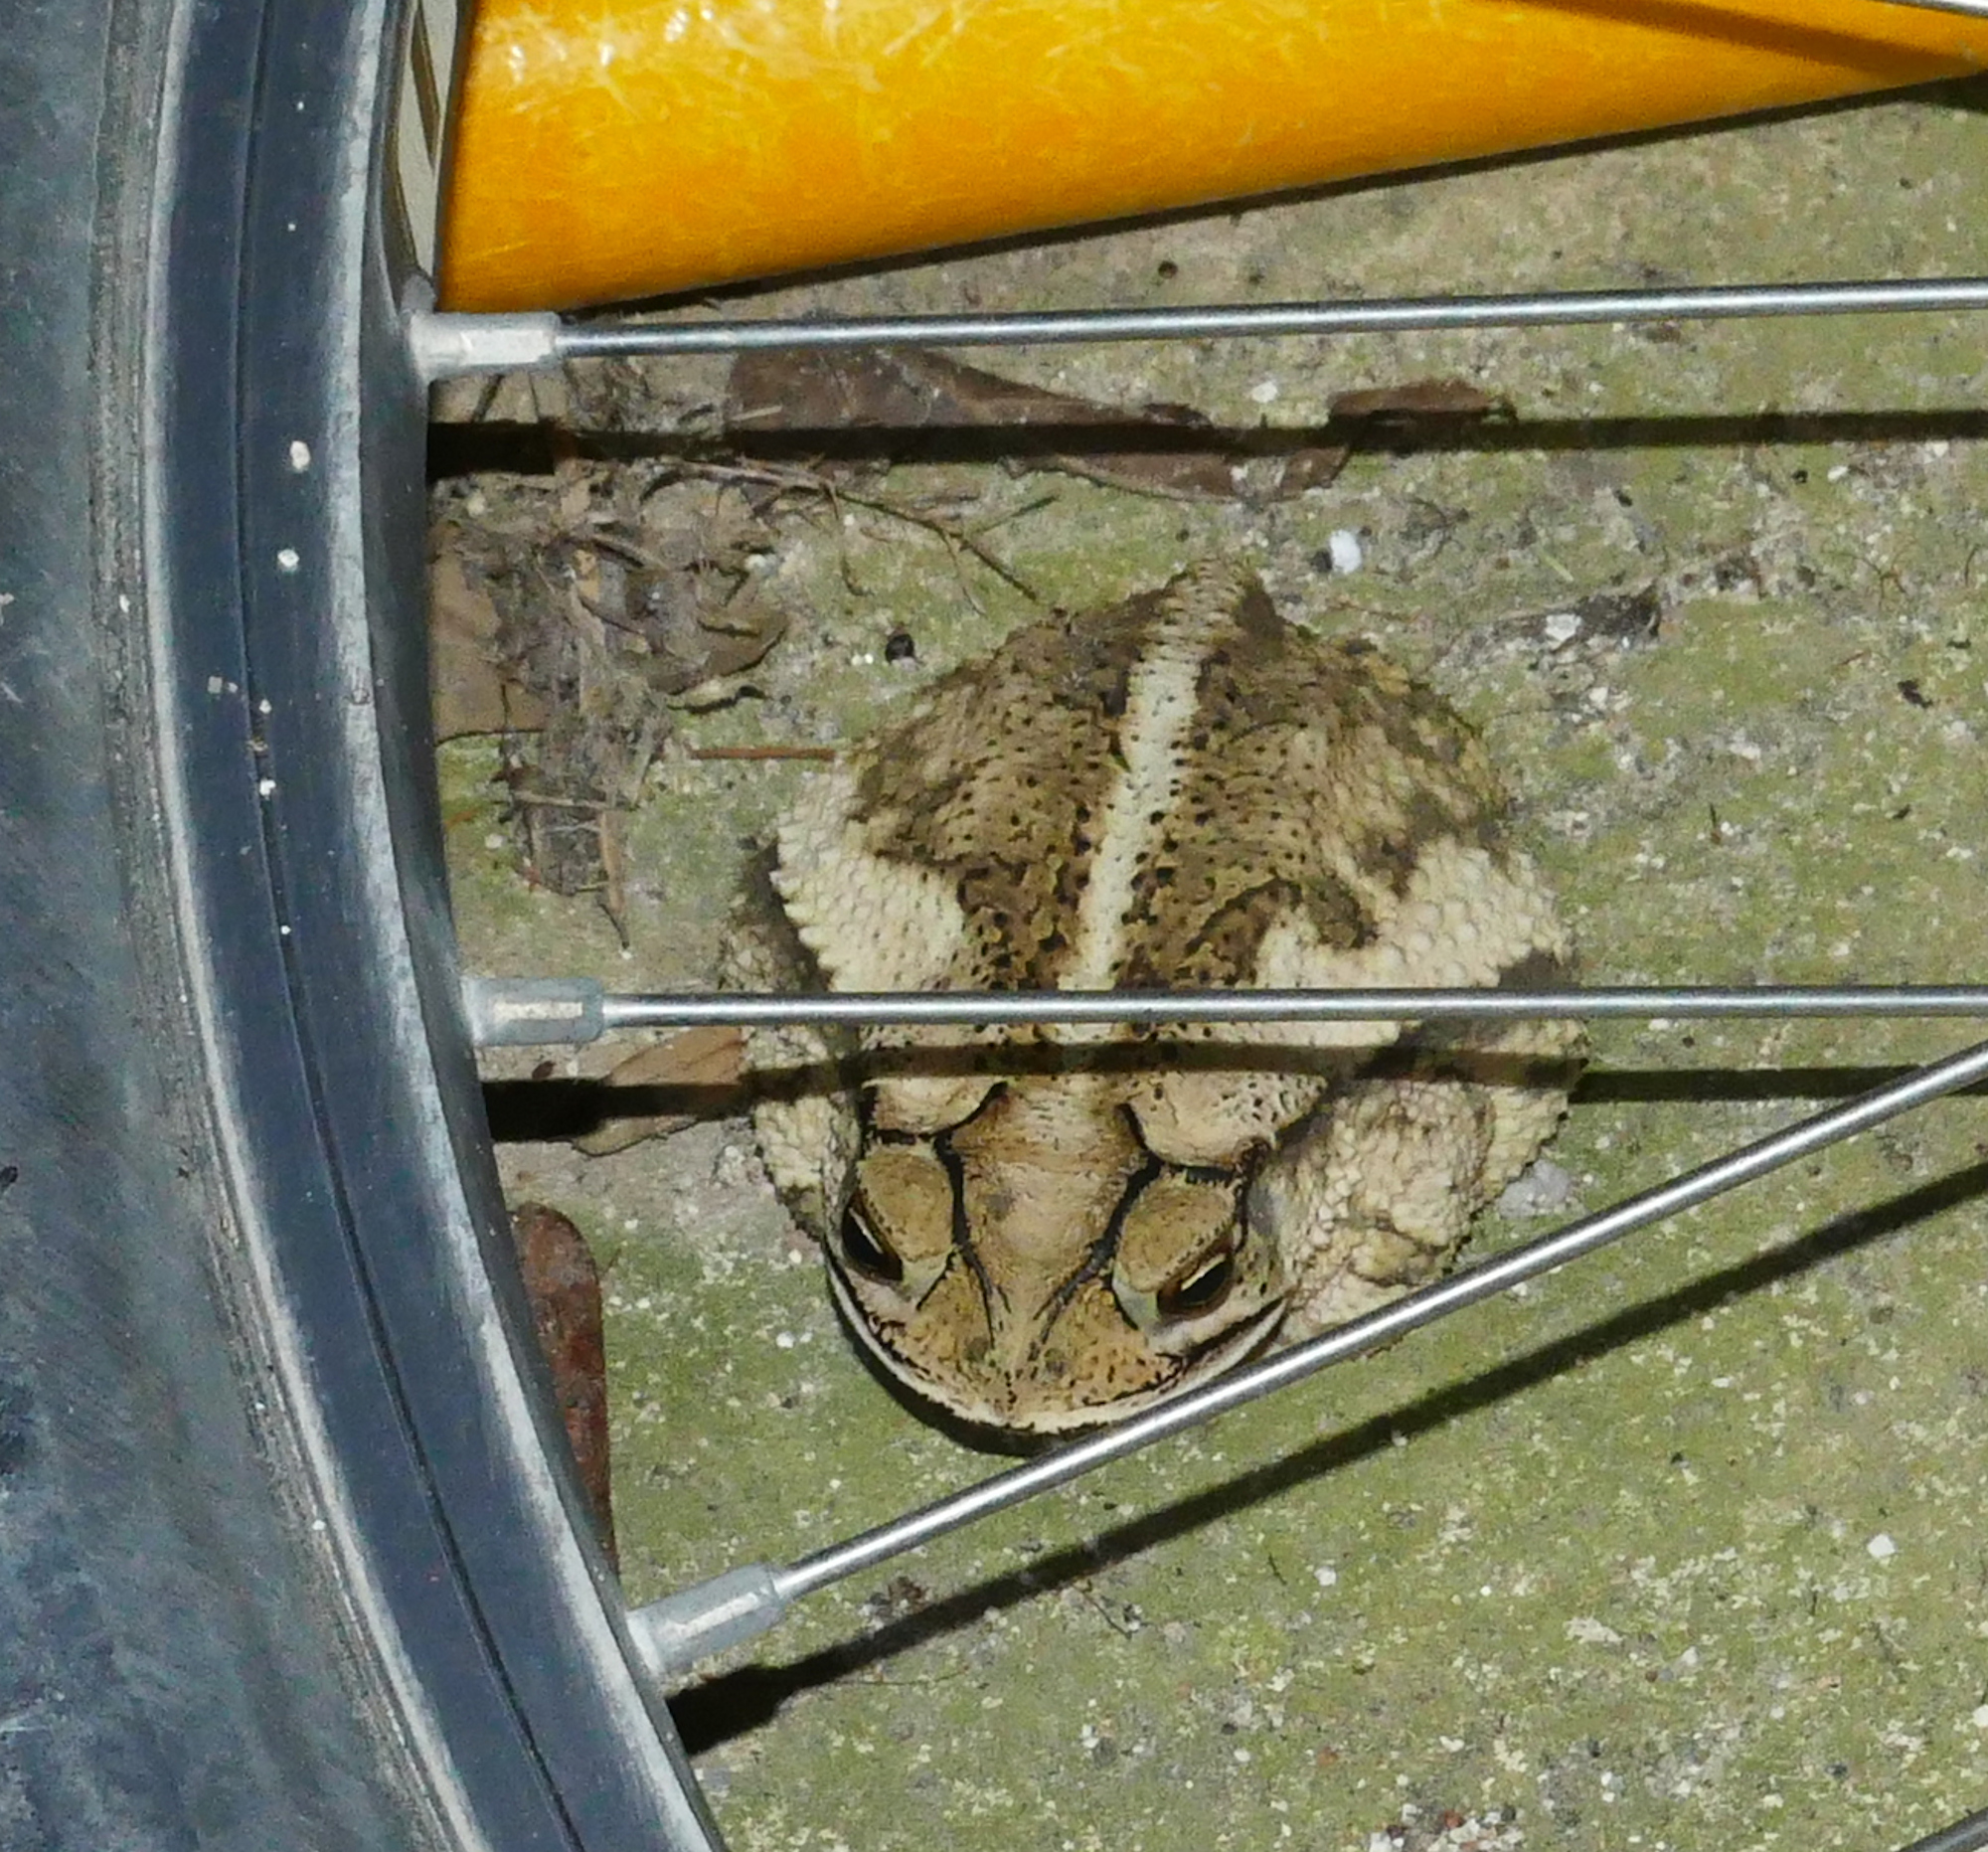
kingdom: Animalia
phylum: Chordata
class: Amphibia
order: Anura
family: Bufonidae
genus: Incilius
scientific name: Incilius nebulifer
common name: Gulf coast toad
